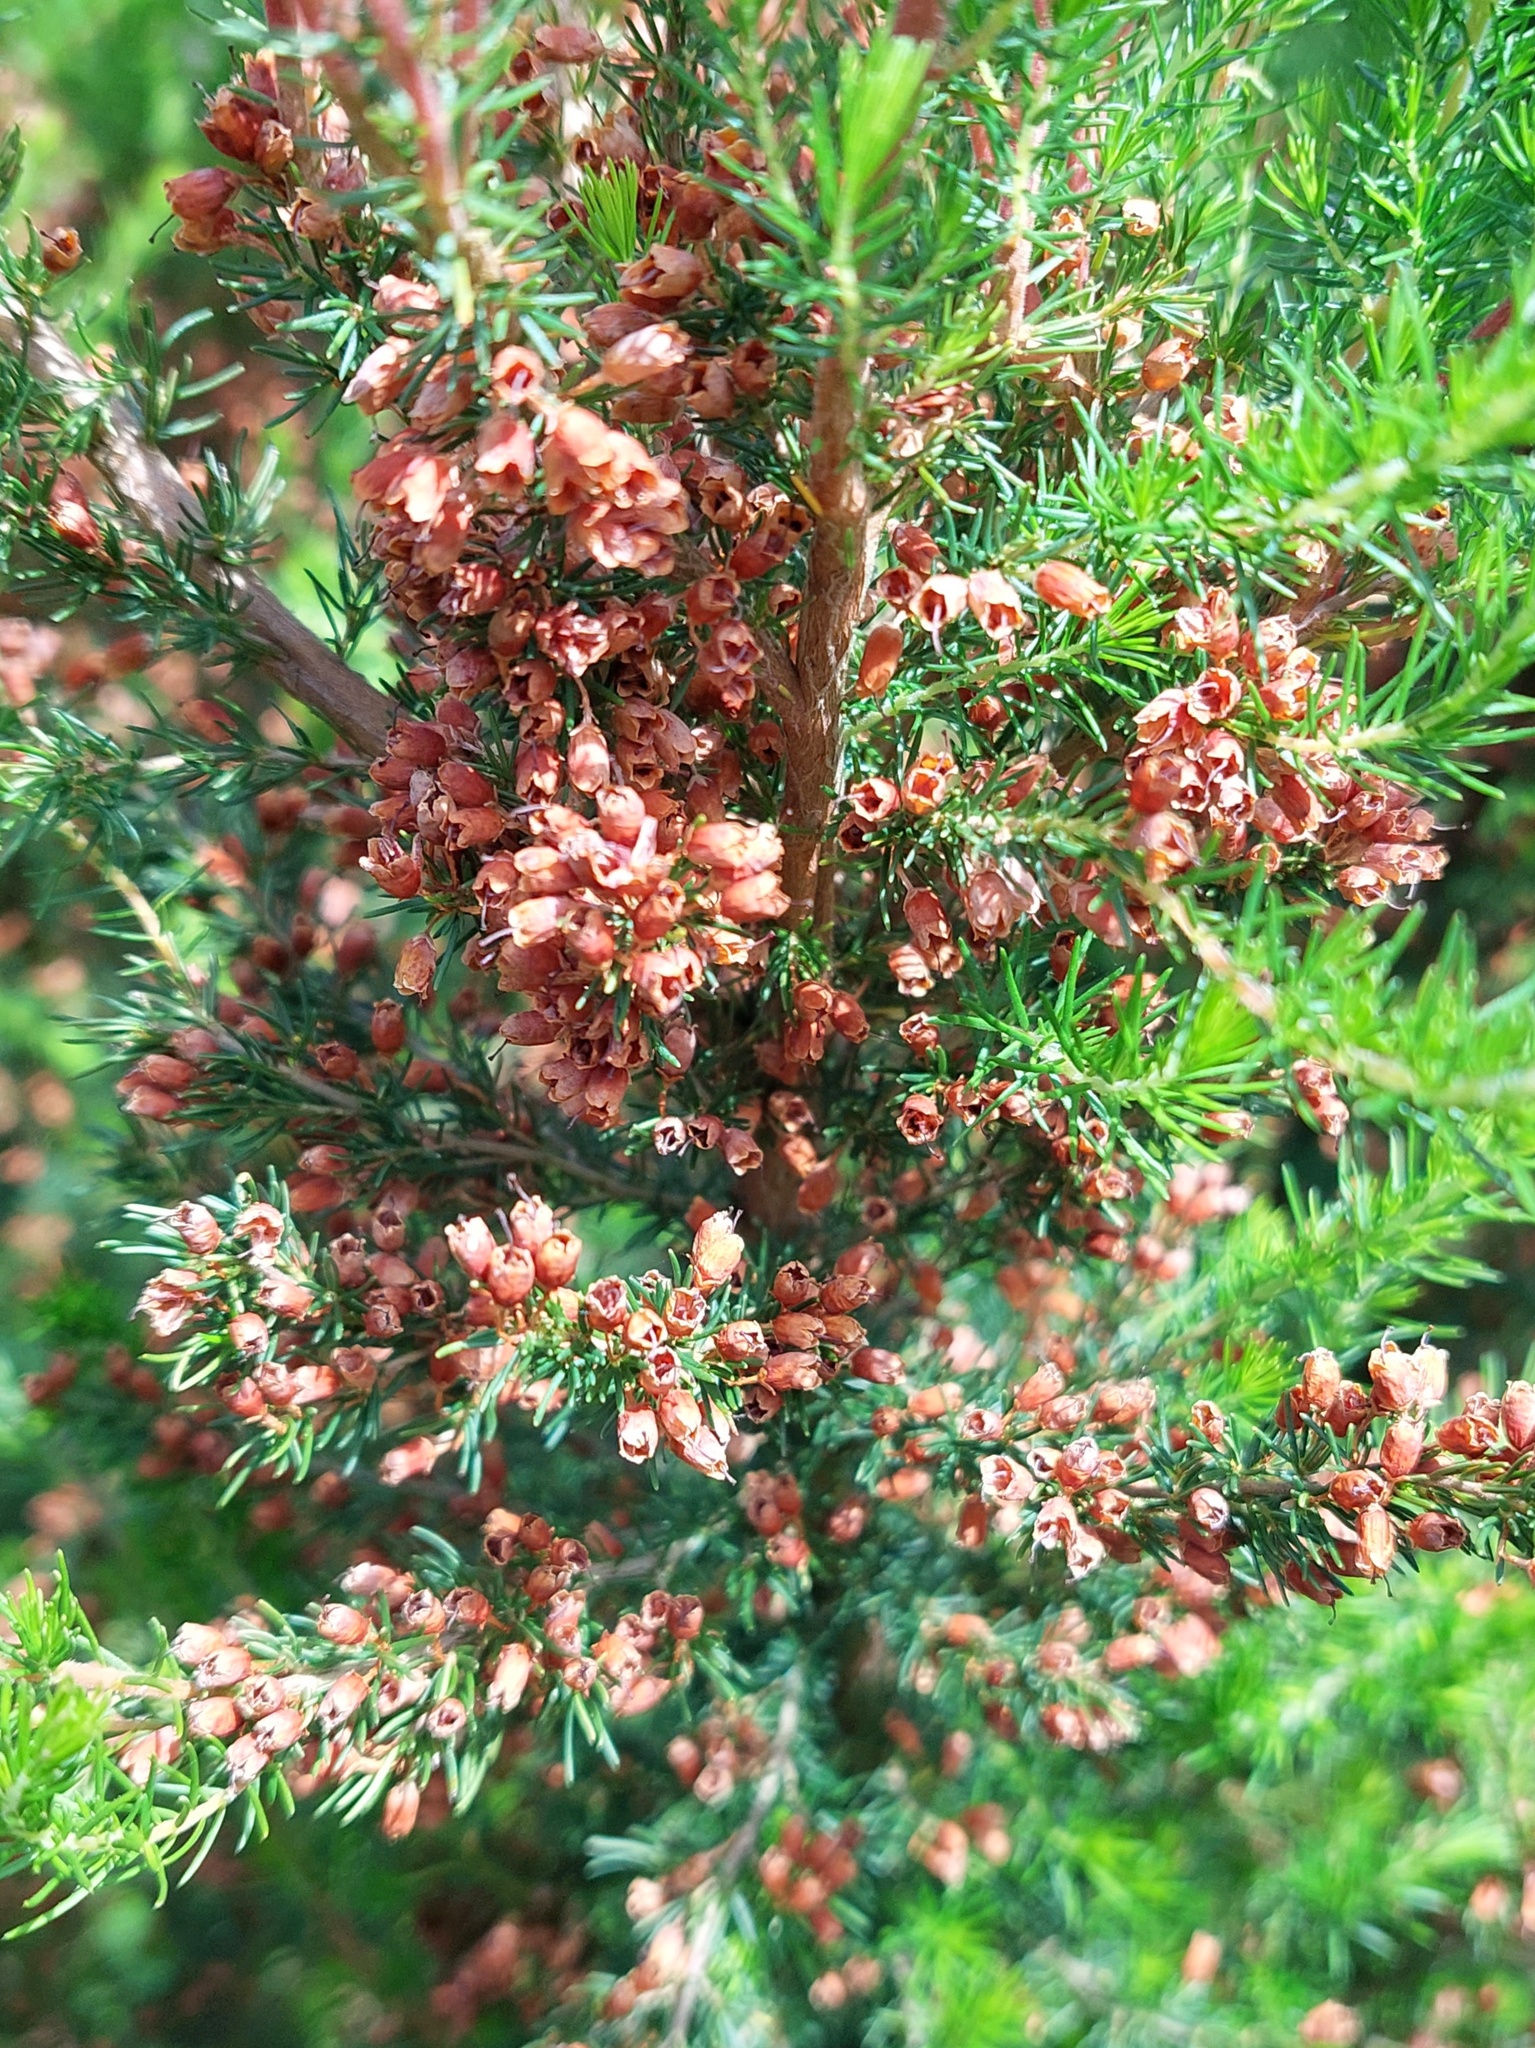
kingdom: Plantae
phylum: Tracheophyta
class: Magnoliopsida
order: Ericales
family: Ericaceae
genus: Erica
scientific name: Erica lusitanica
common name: Spanish heath
